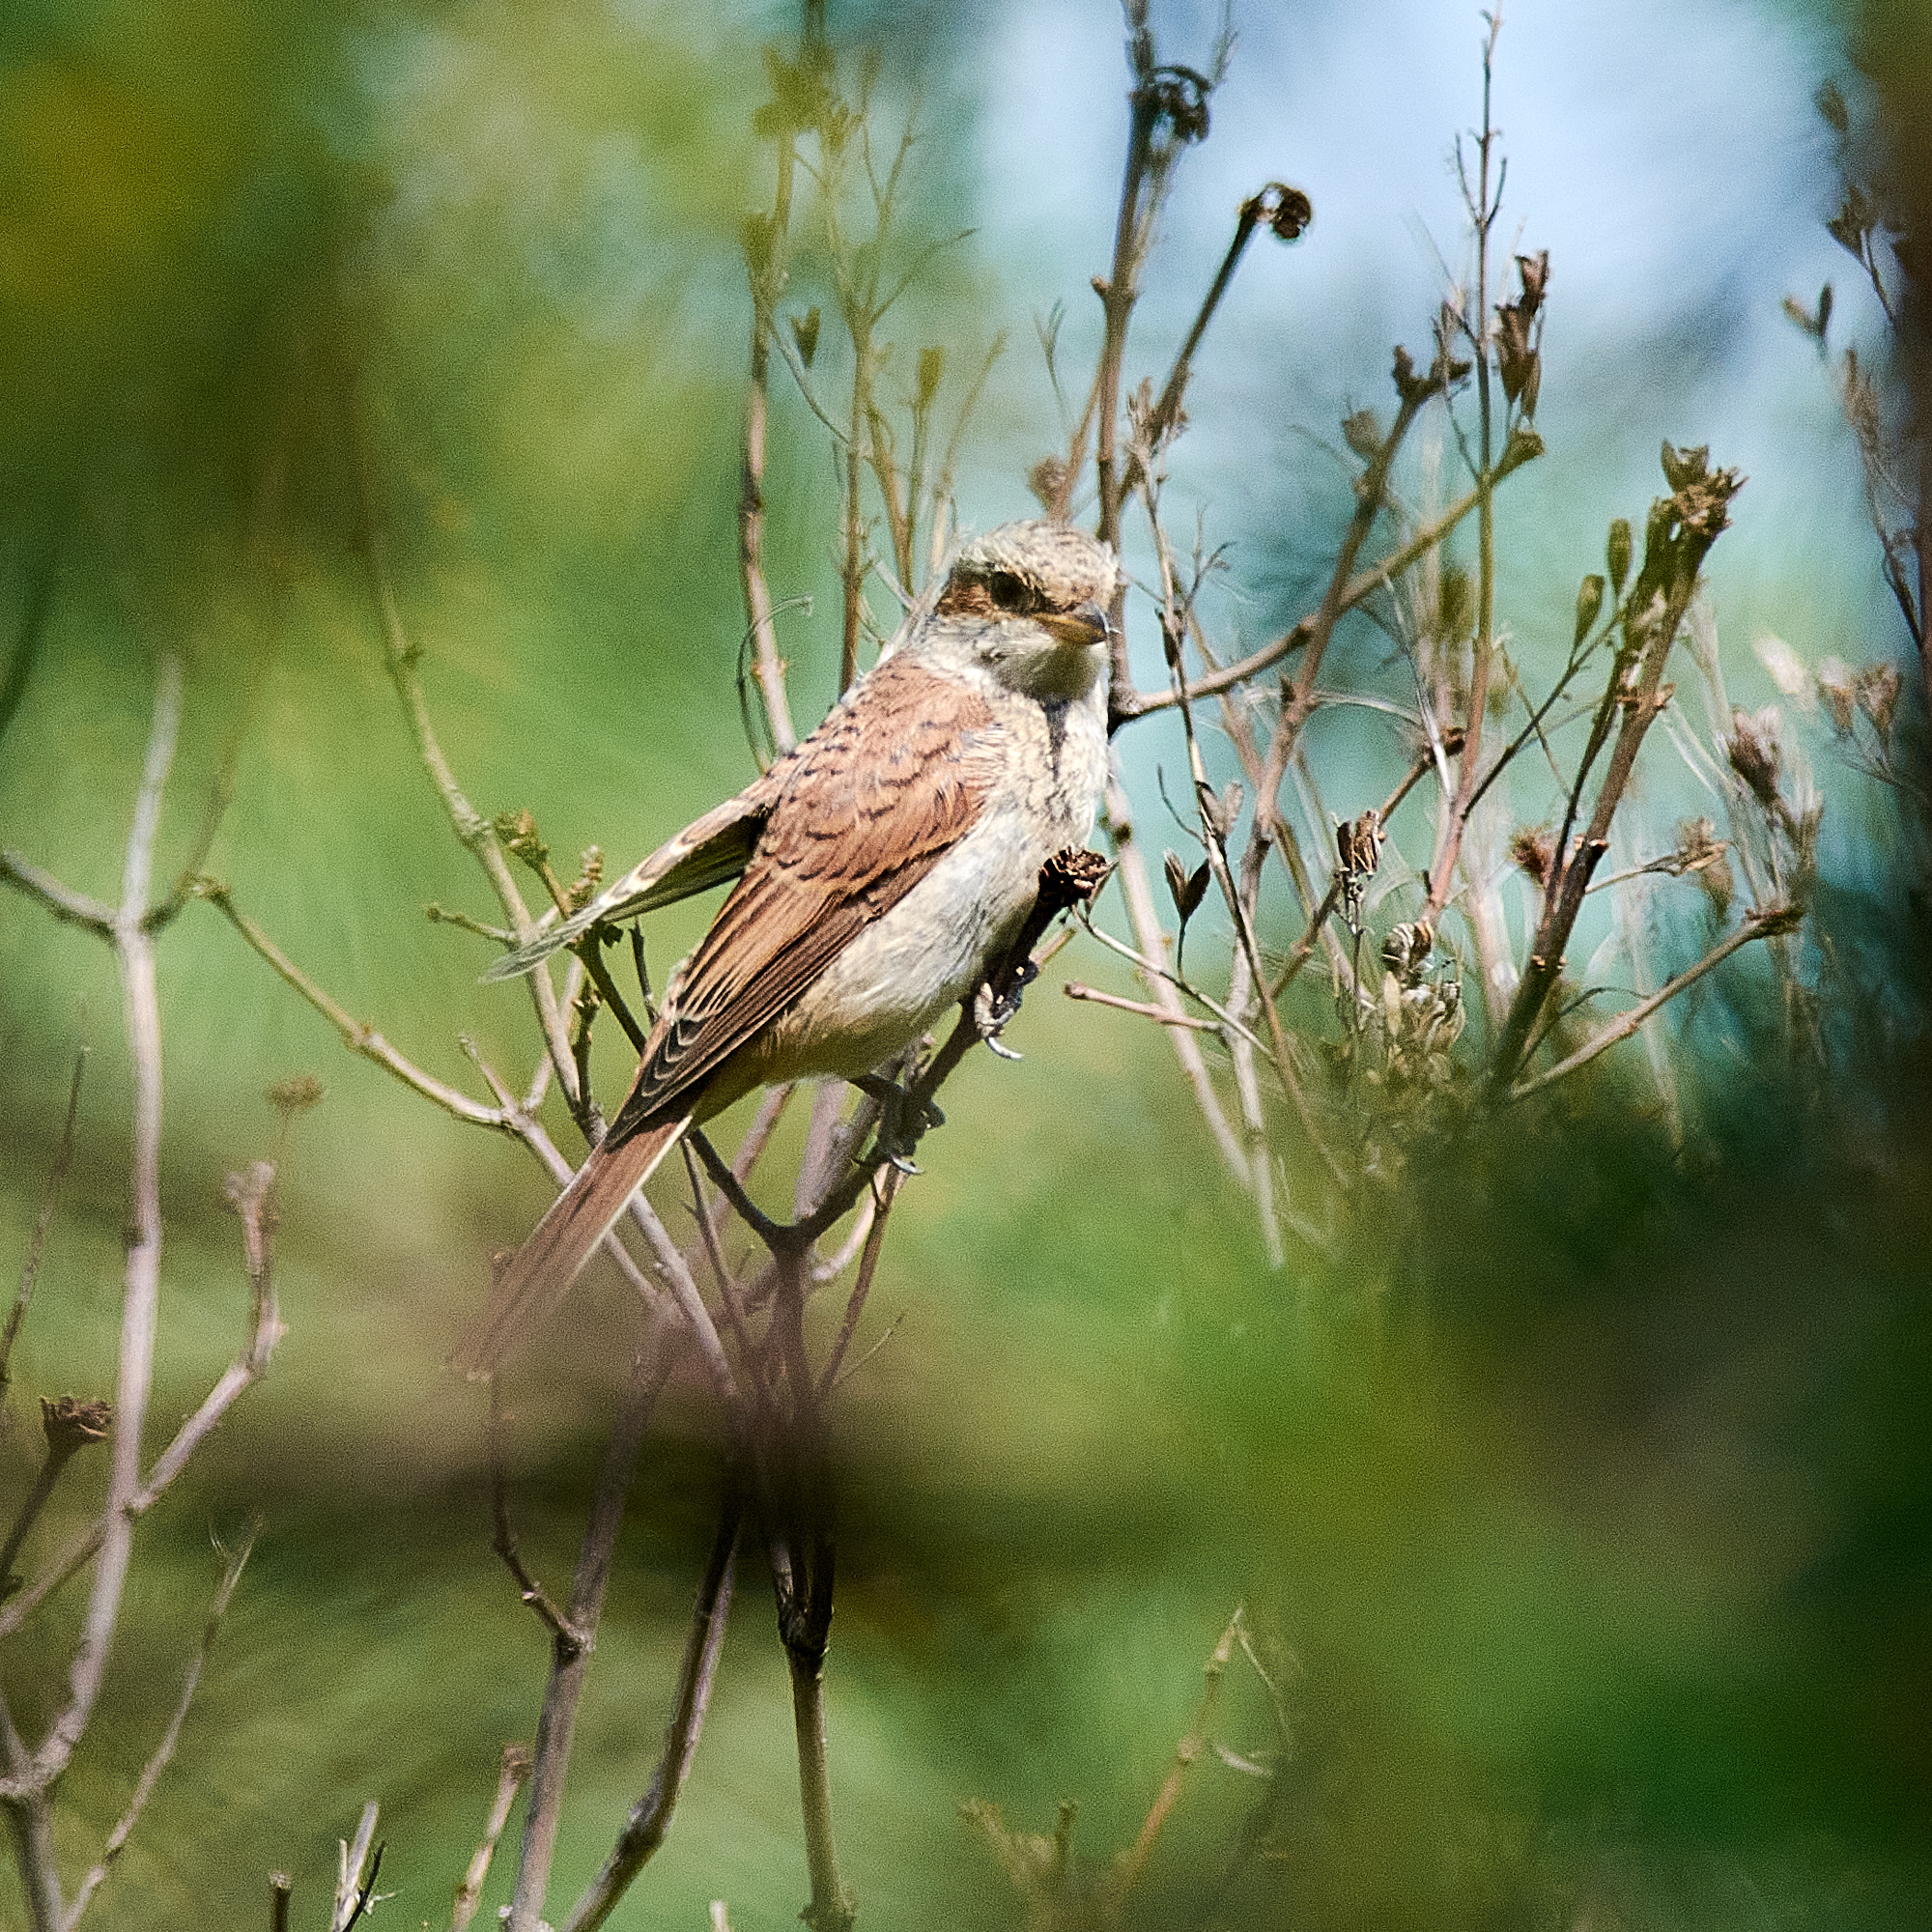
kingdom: Animalia
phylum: Chordata
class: Aves
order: Passeriformes
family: Laniidae
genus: Lanius
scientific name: Lanius collurio
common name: Red-backed shrike
